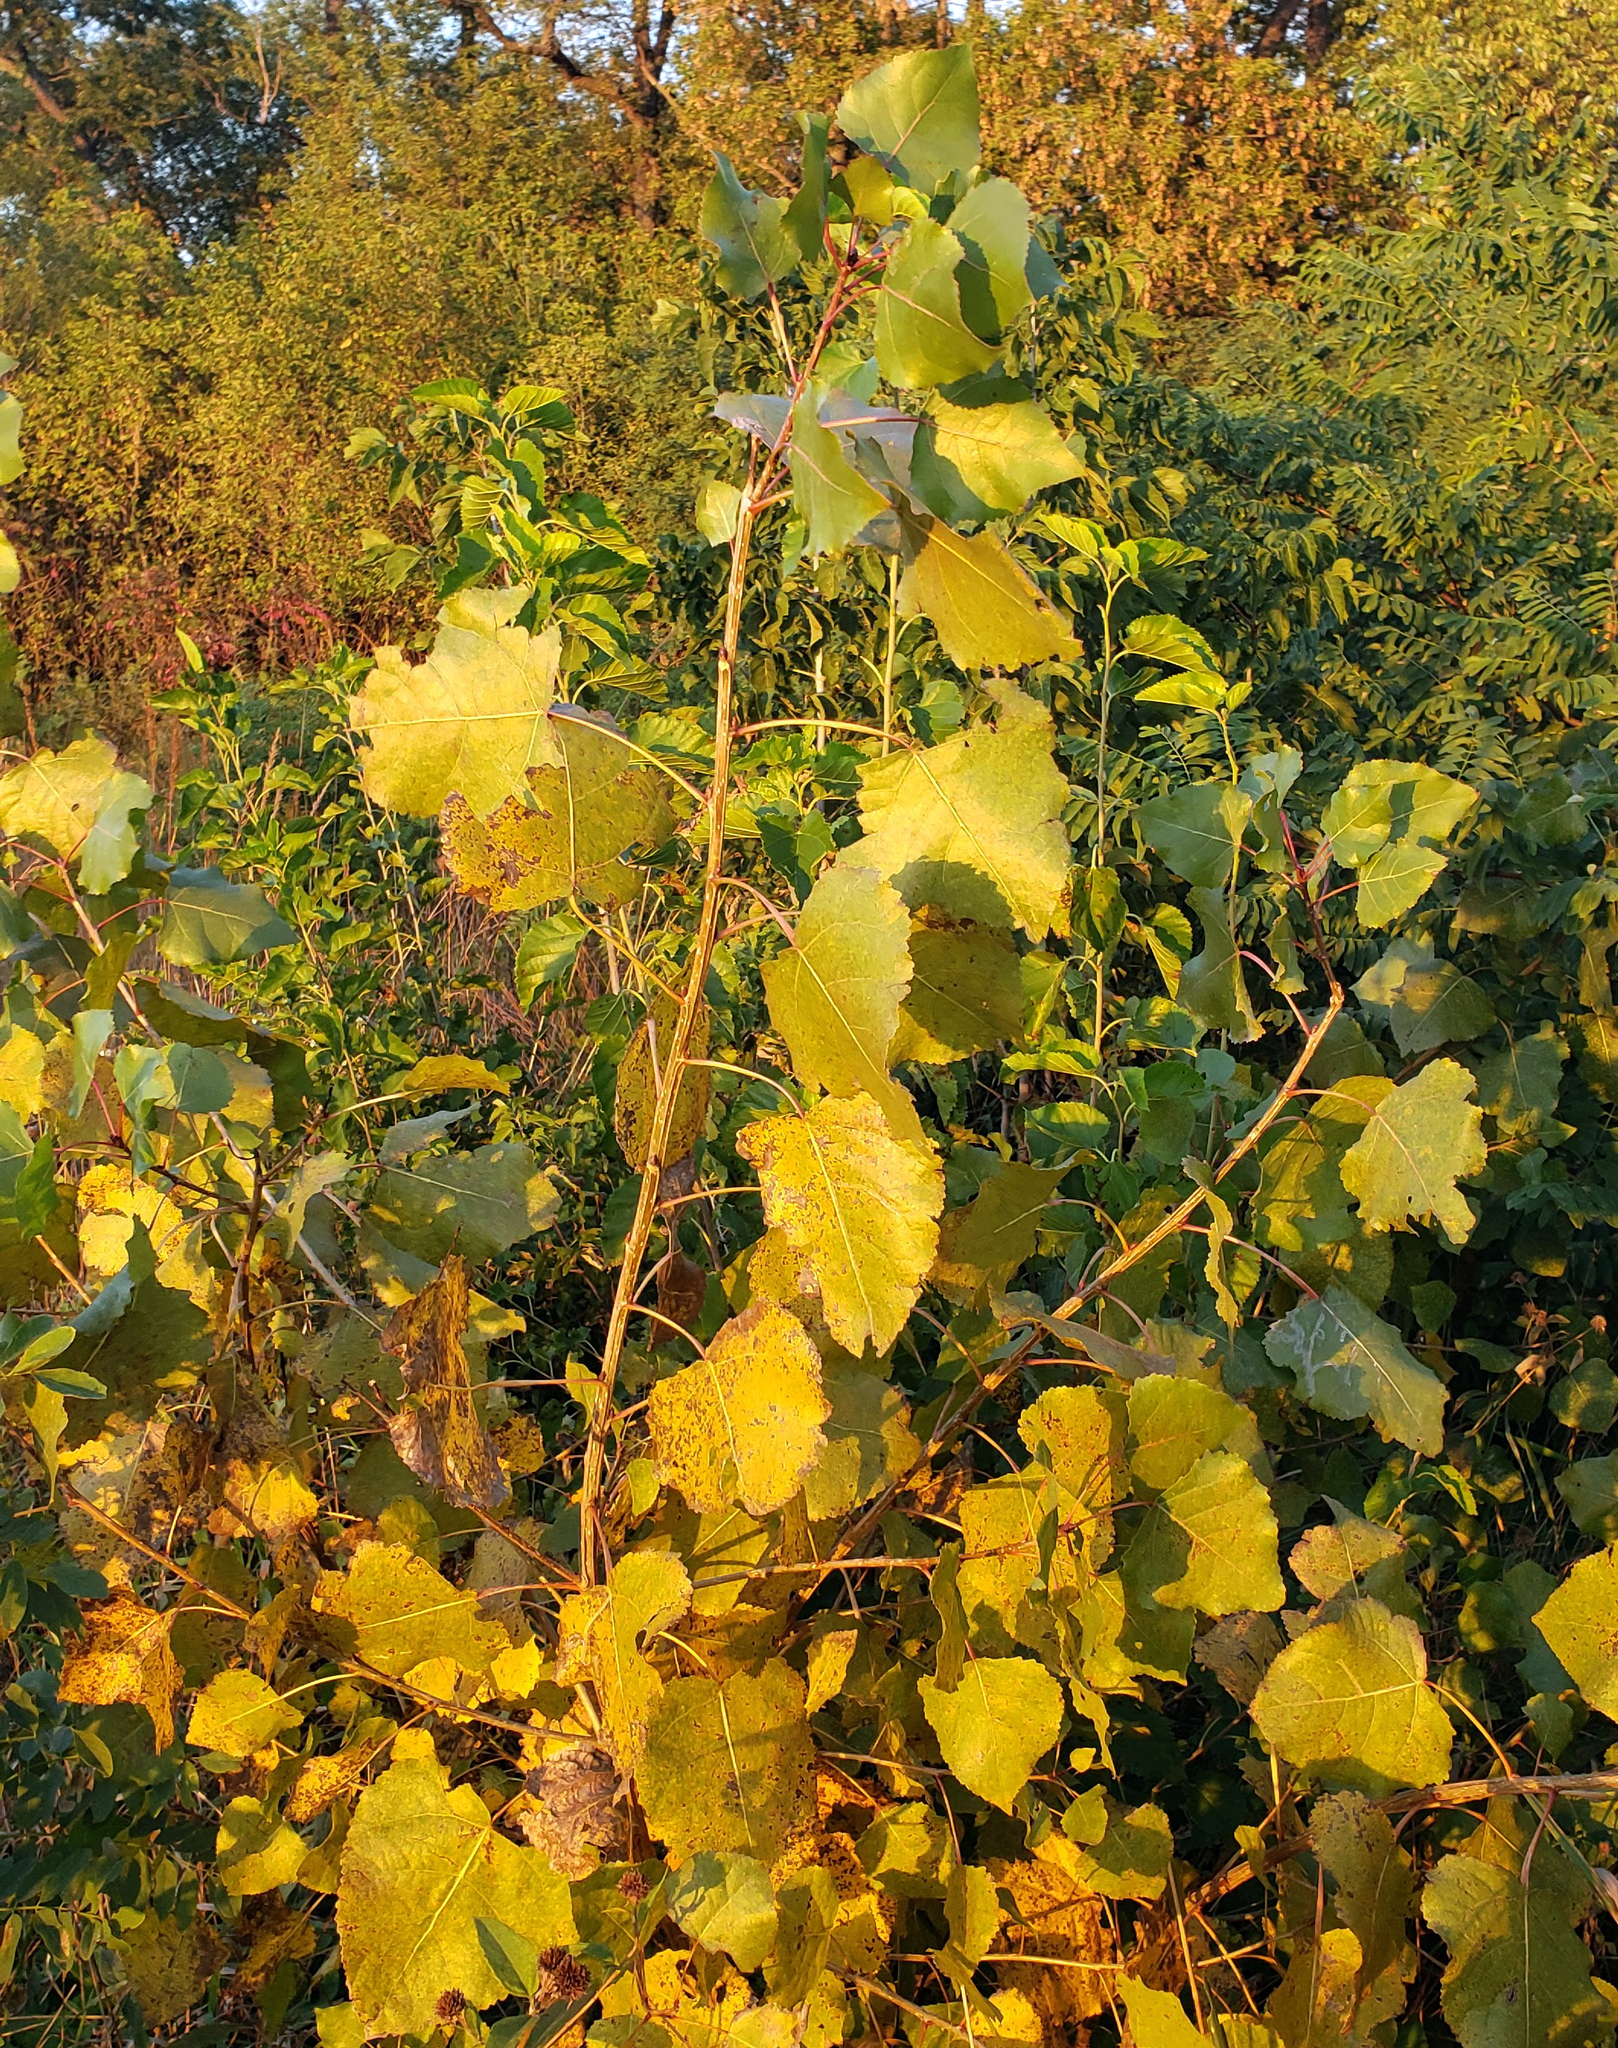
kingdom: Plantae
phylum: Tracheophyta
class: Magnoliopsida
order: Malpighiales
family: Salicaceae
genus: Populus
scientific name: Populus deltoides
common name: Eastern cottonwood
